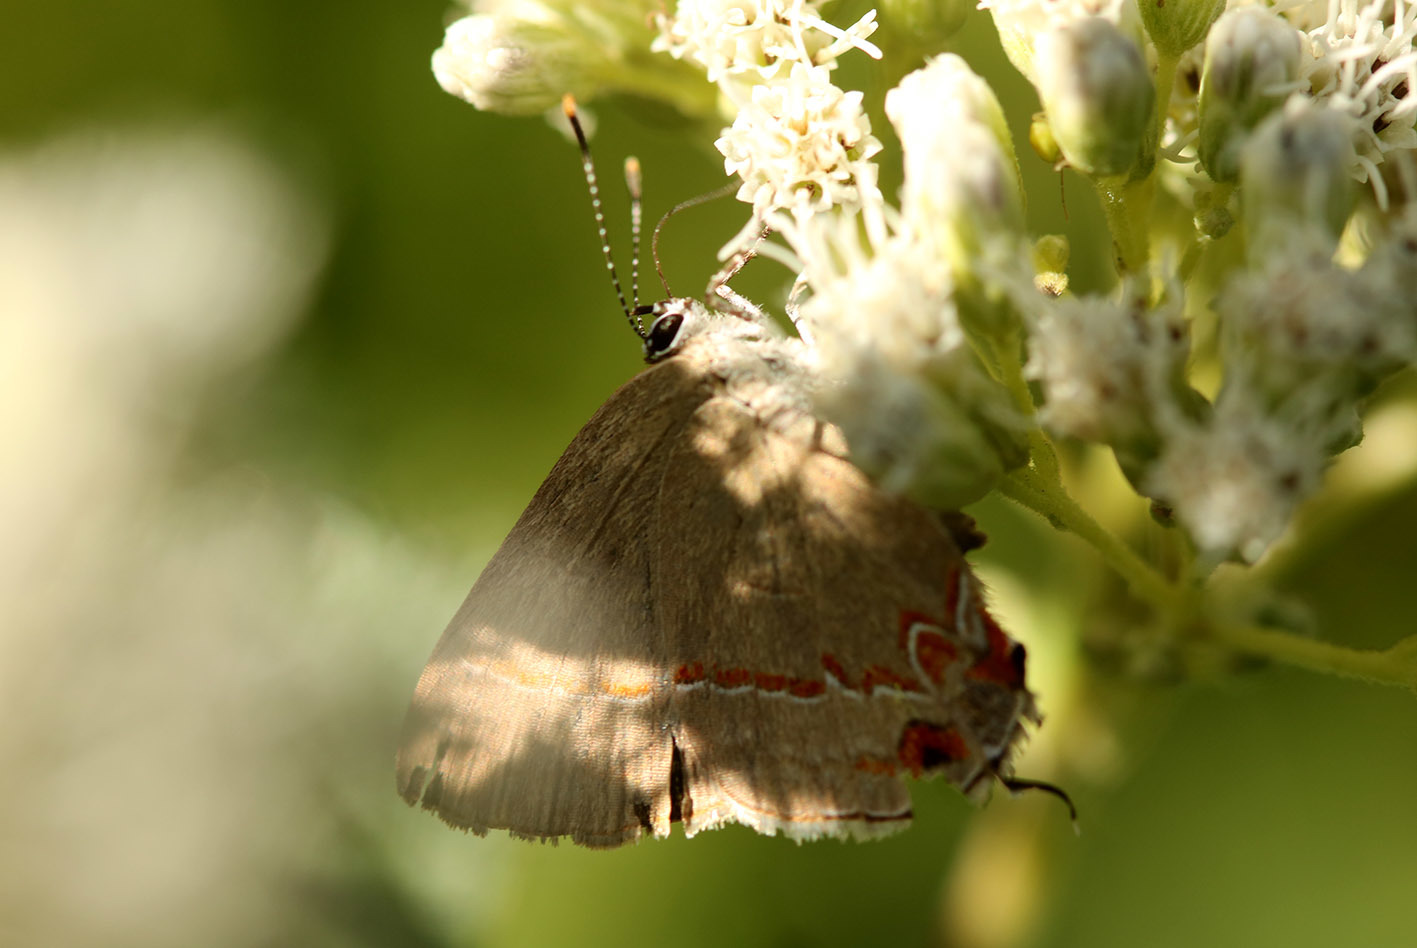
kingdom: Animalia
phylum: Arthropoda
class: Insecta
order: Lepidoptera
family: Lycaenidae
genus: Calycopis
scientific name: Calycopis caulonia
